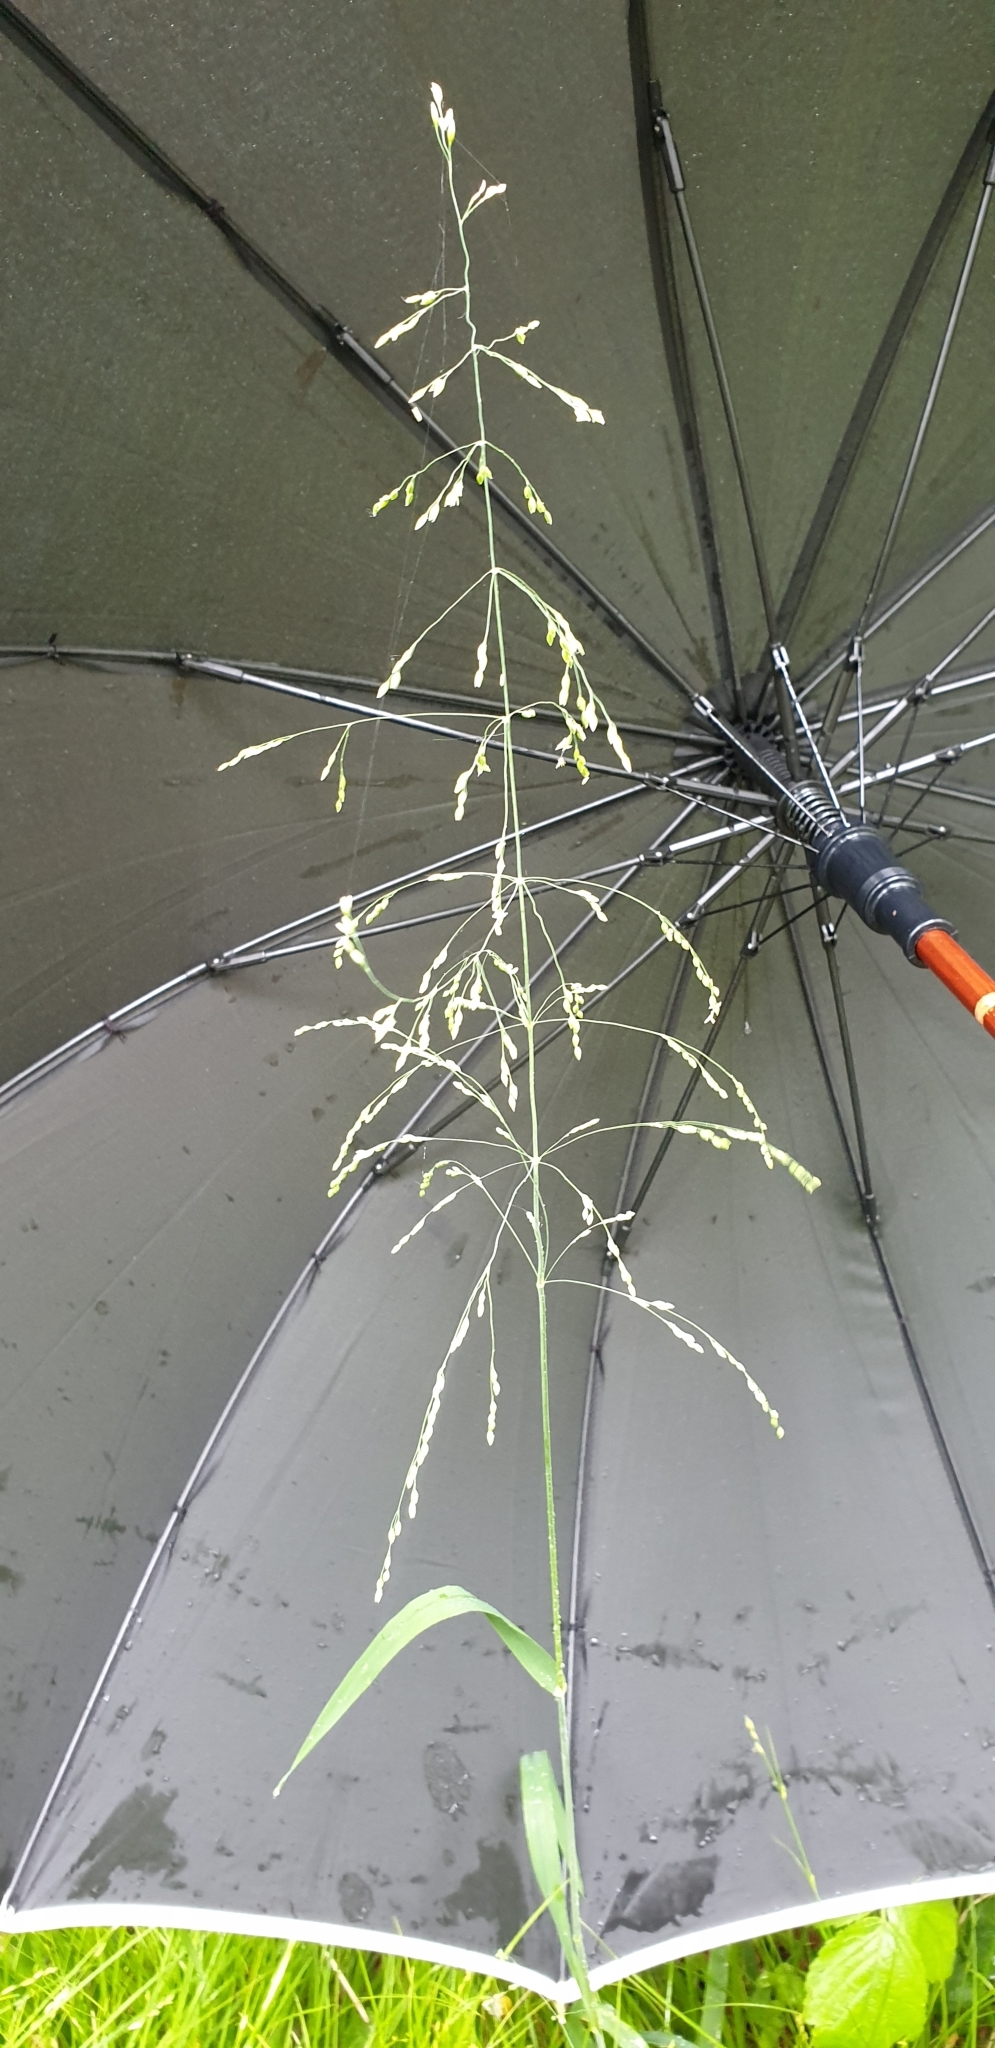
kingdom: Plantae
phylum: Tracheophyta
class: Liliopsida
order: Poales
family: Poaceae
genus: Milium
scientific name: Milium effusum
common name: Wood millet
